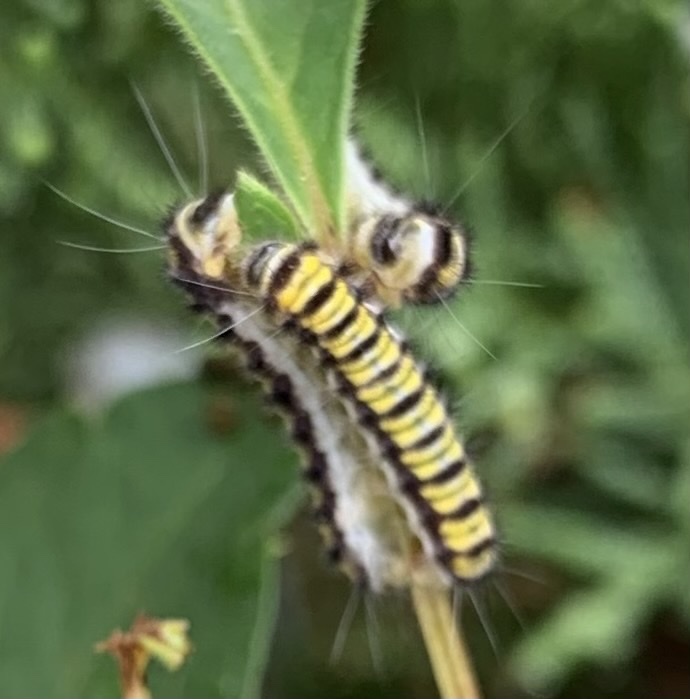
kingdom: Animalia
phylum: Arthropoda
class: Insecta
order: Lepidoptera
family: Zygaenidae
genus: Harrisina
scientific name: Harrisina americana
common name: Grapeleaf skeletonizer moth
